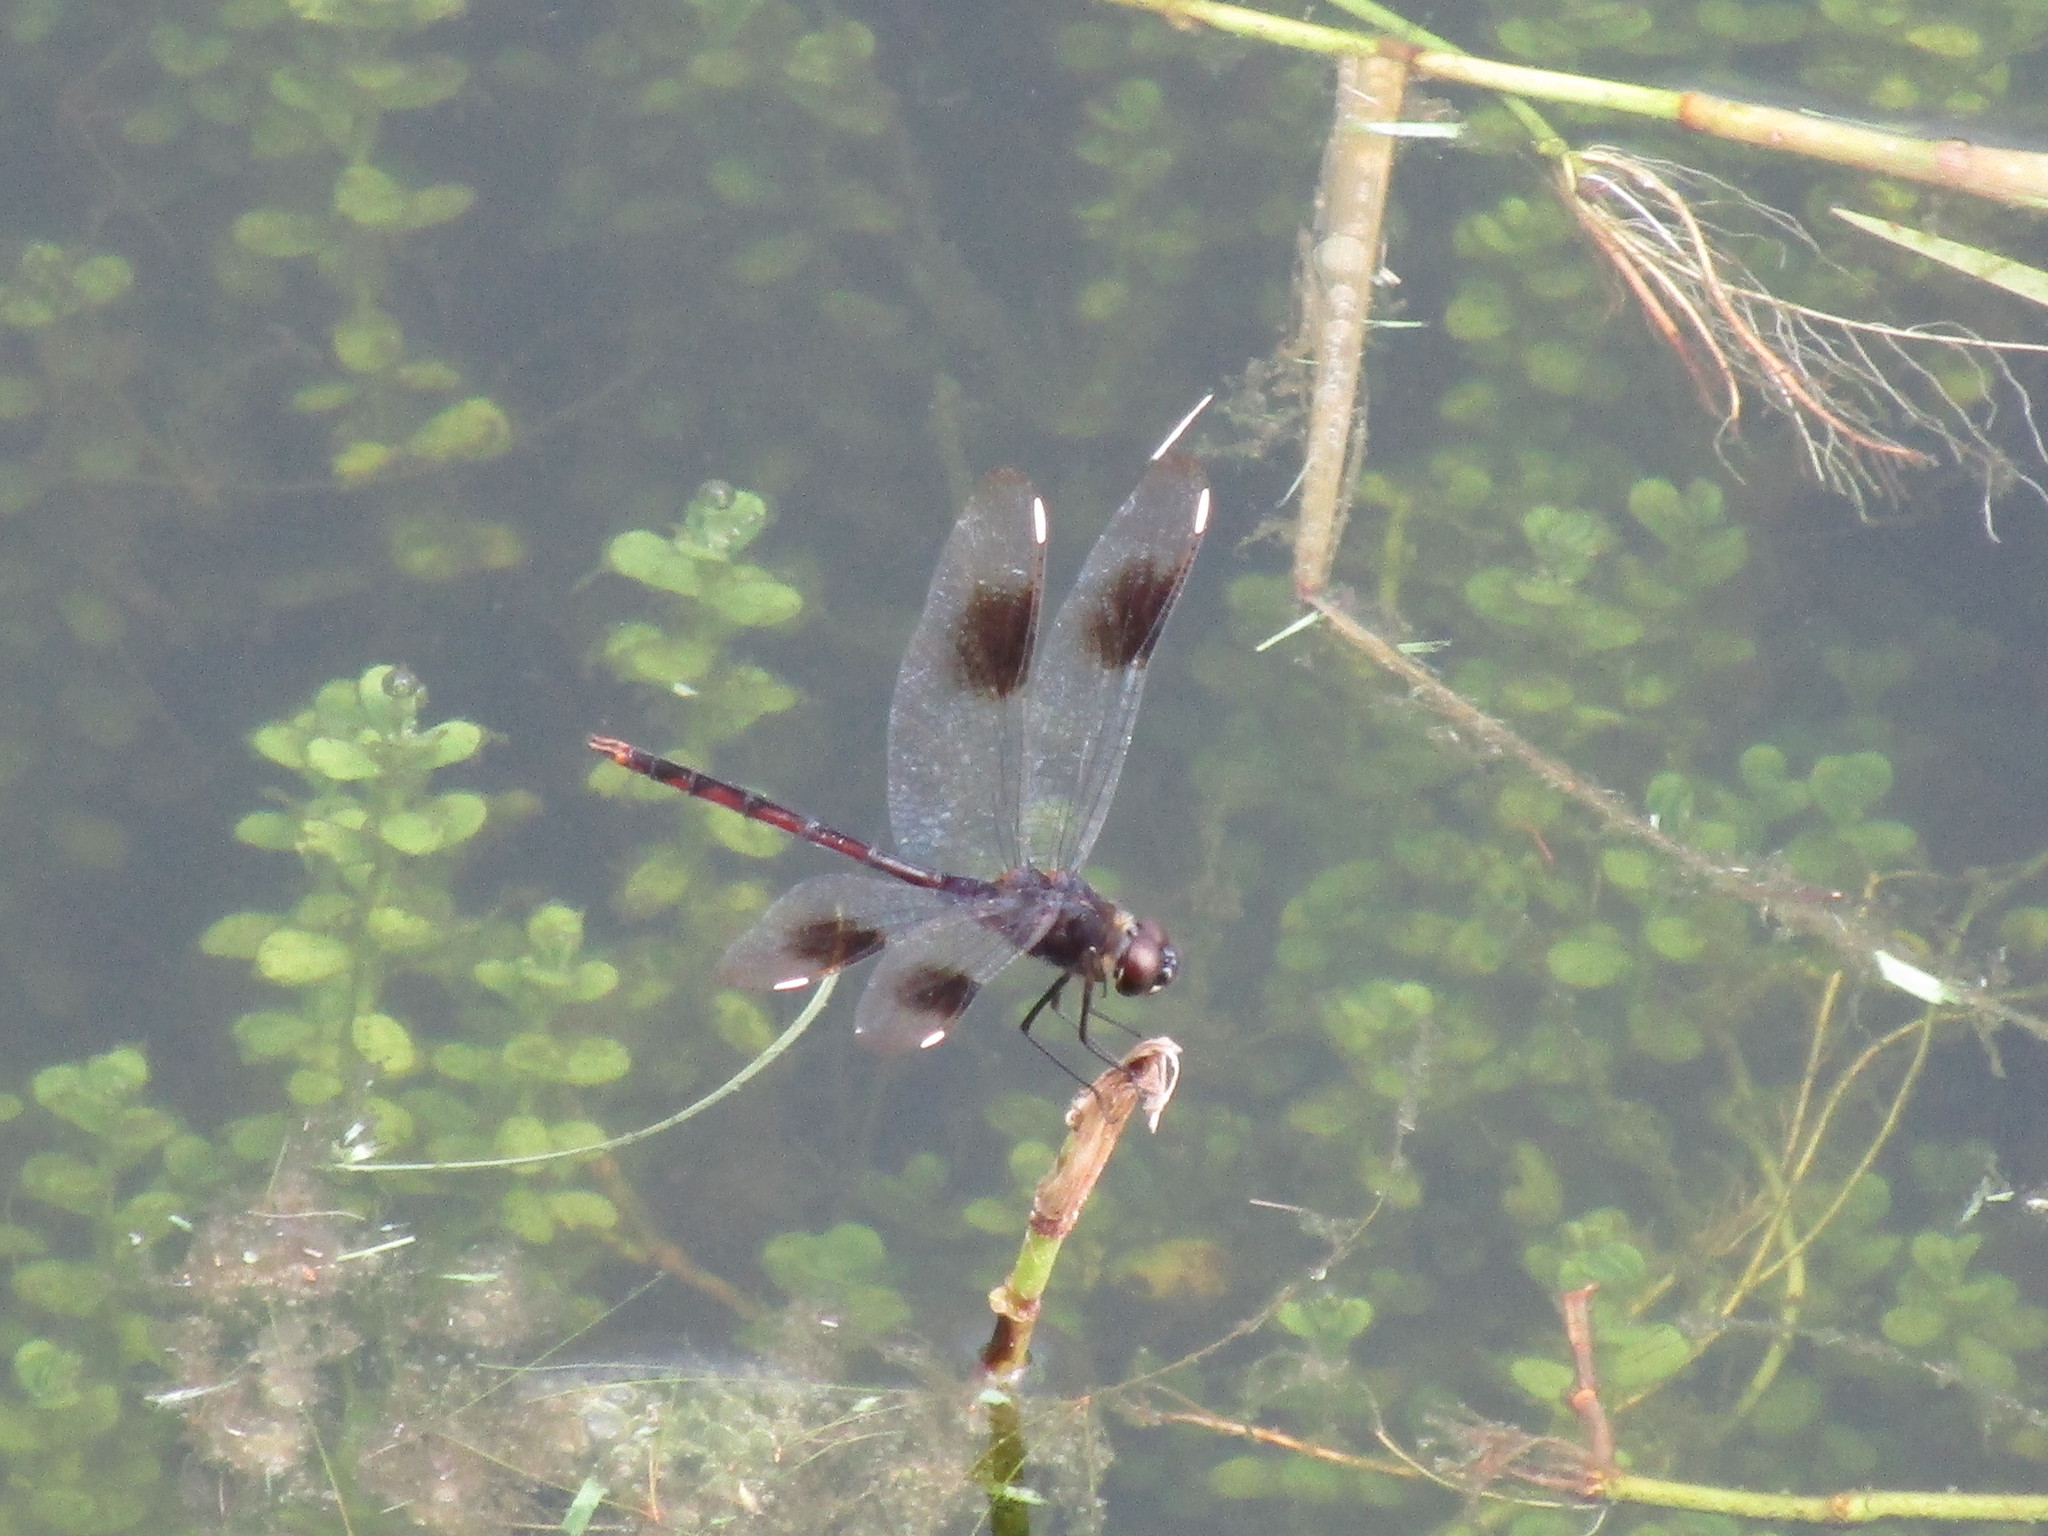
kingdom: Animalia
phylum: Arthropoda
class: Insecta
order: Odonata
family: Libellulidae
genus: Brachymesia
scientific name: Brachymesia gravida
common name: Four-spotted pennant
